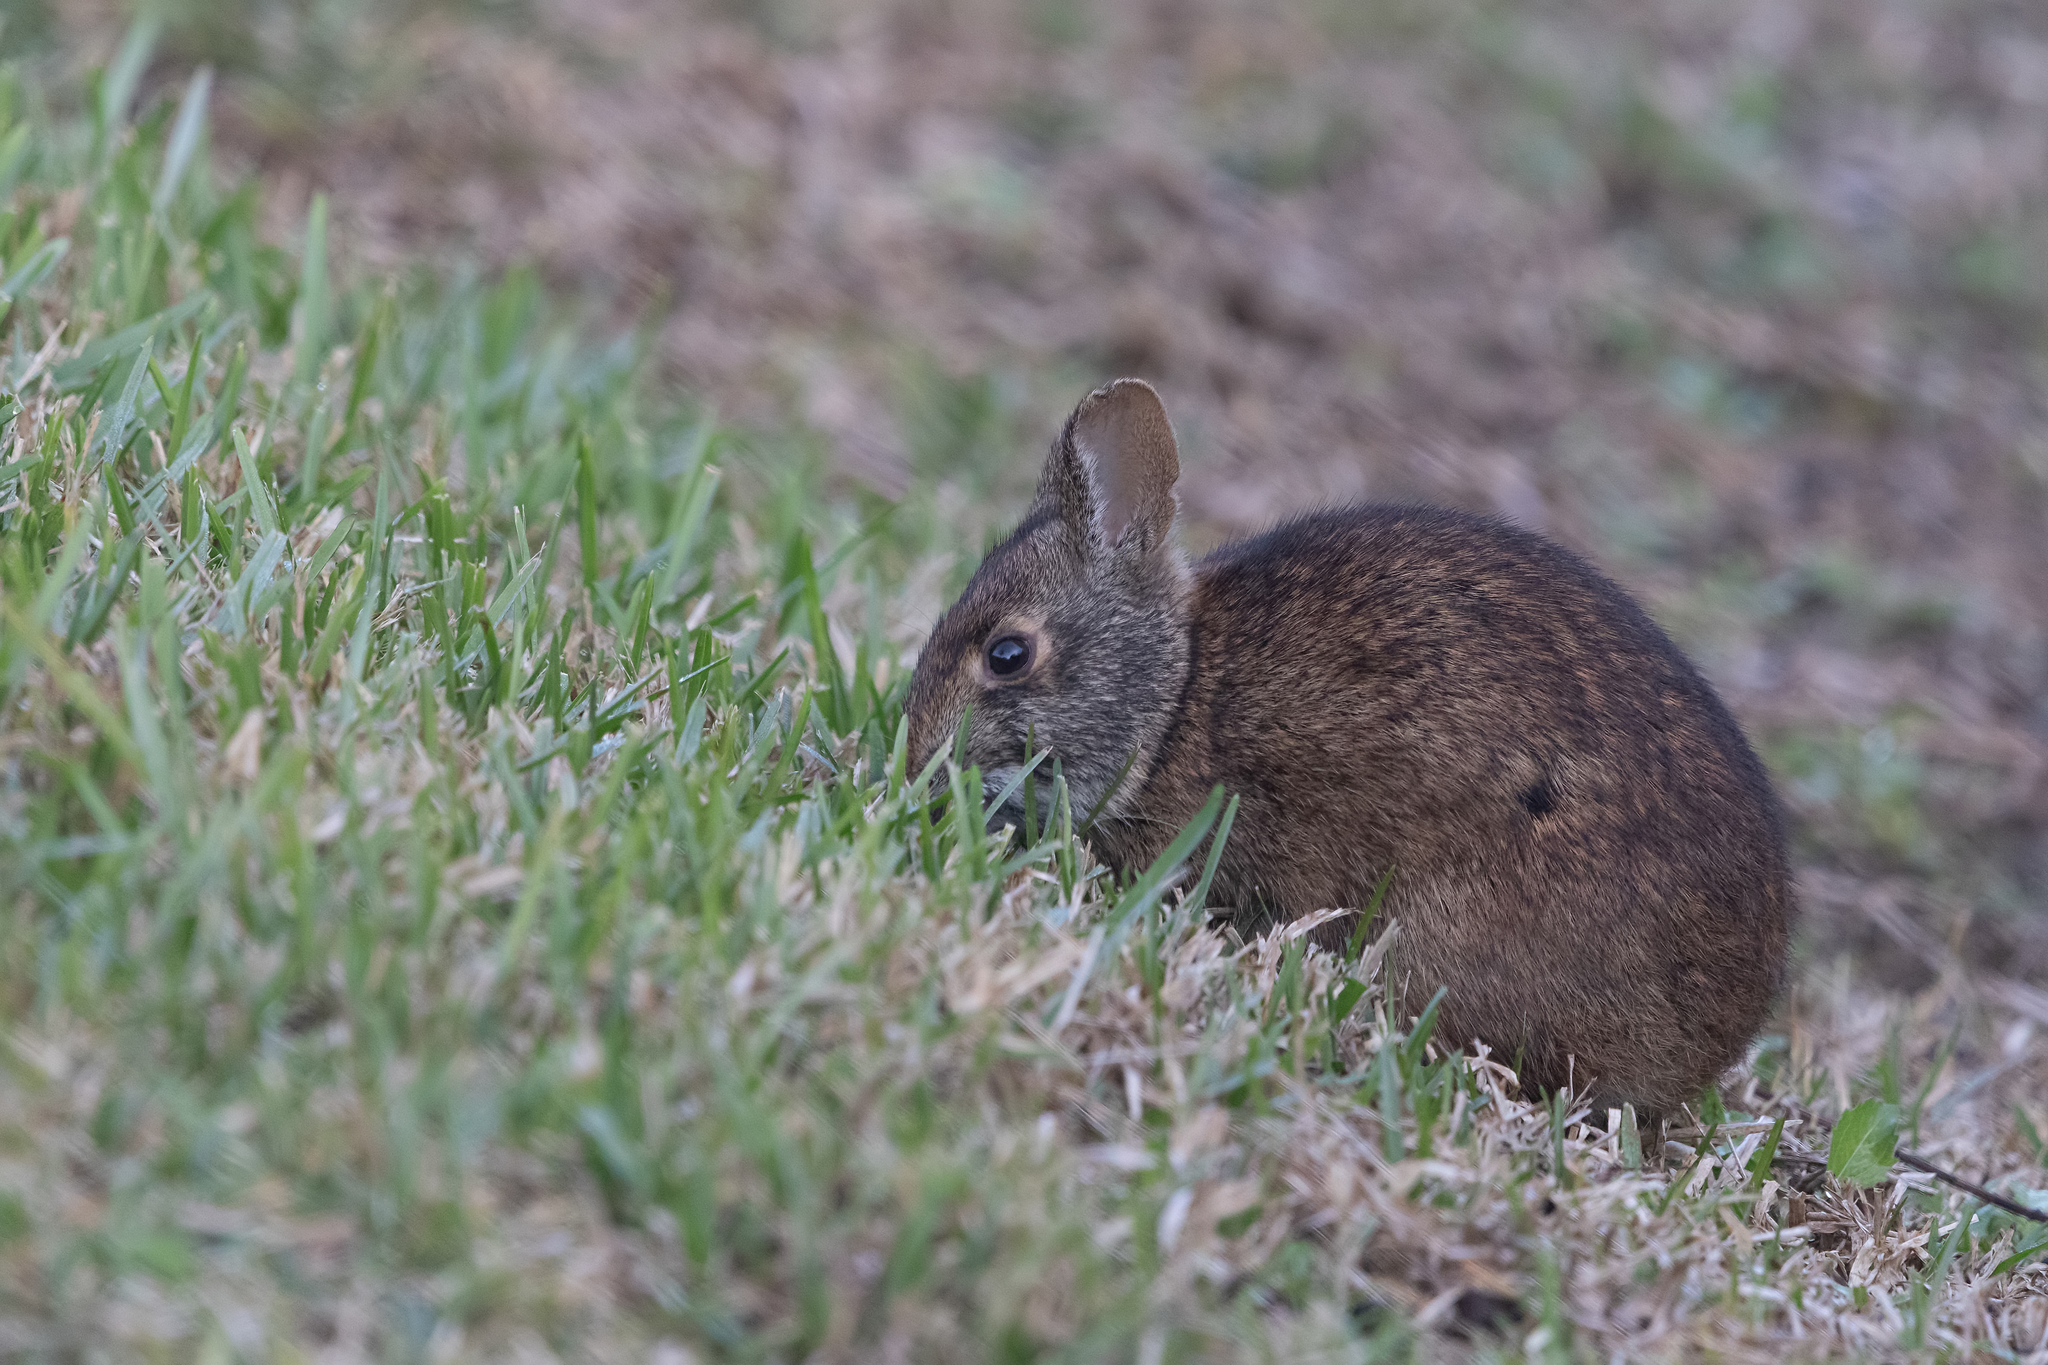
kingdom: Animalia
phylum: Chordata
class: Mammalia
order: Lagomorpha
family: Leporidae
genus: Sylvilagus
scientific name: Sylvilagus palustris
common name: Marsh rabbit
